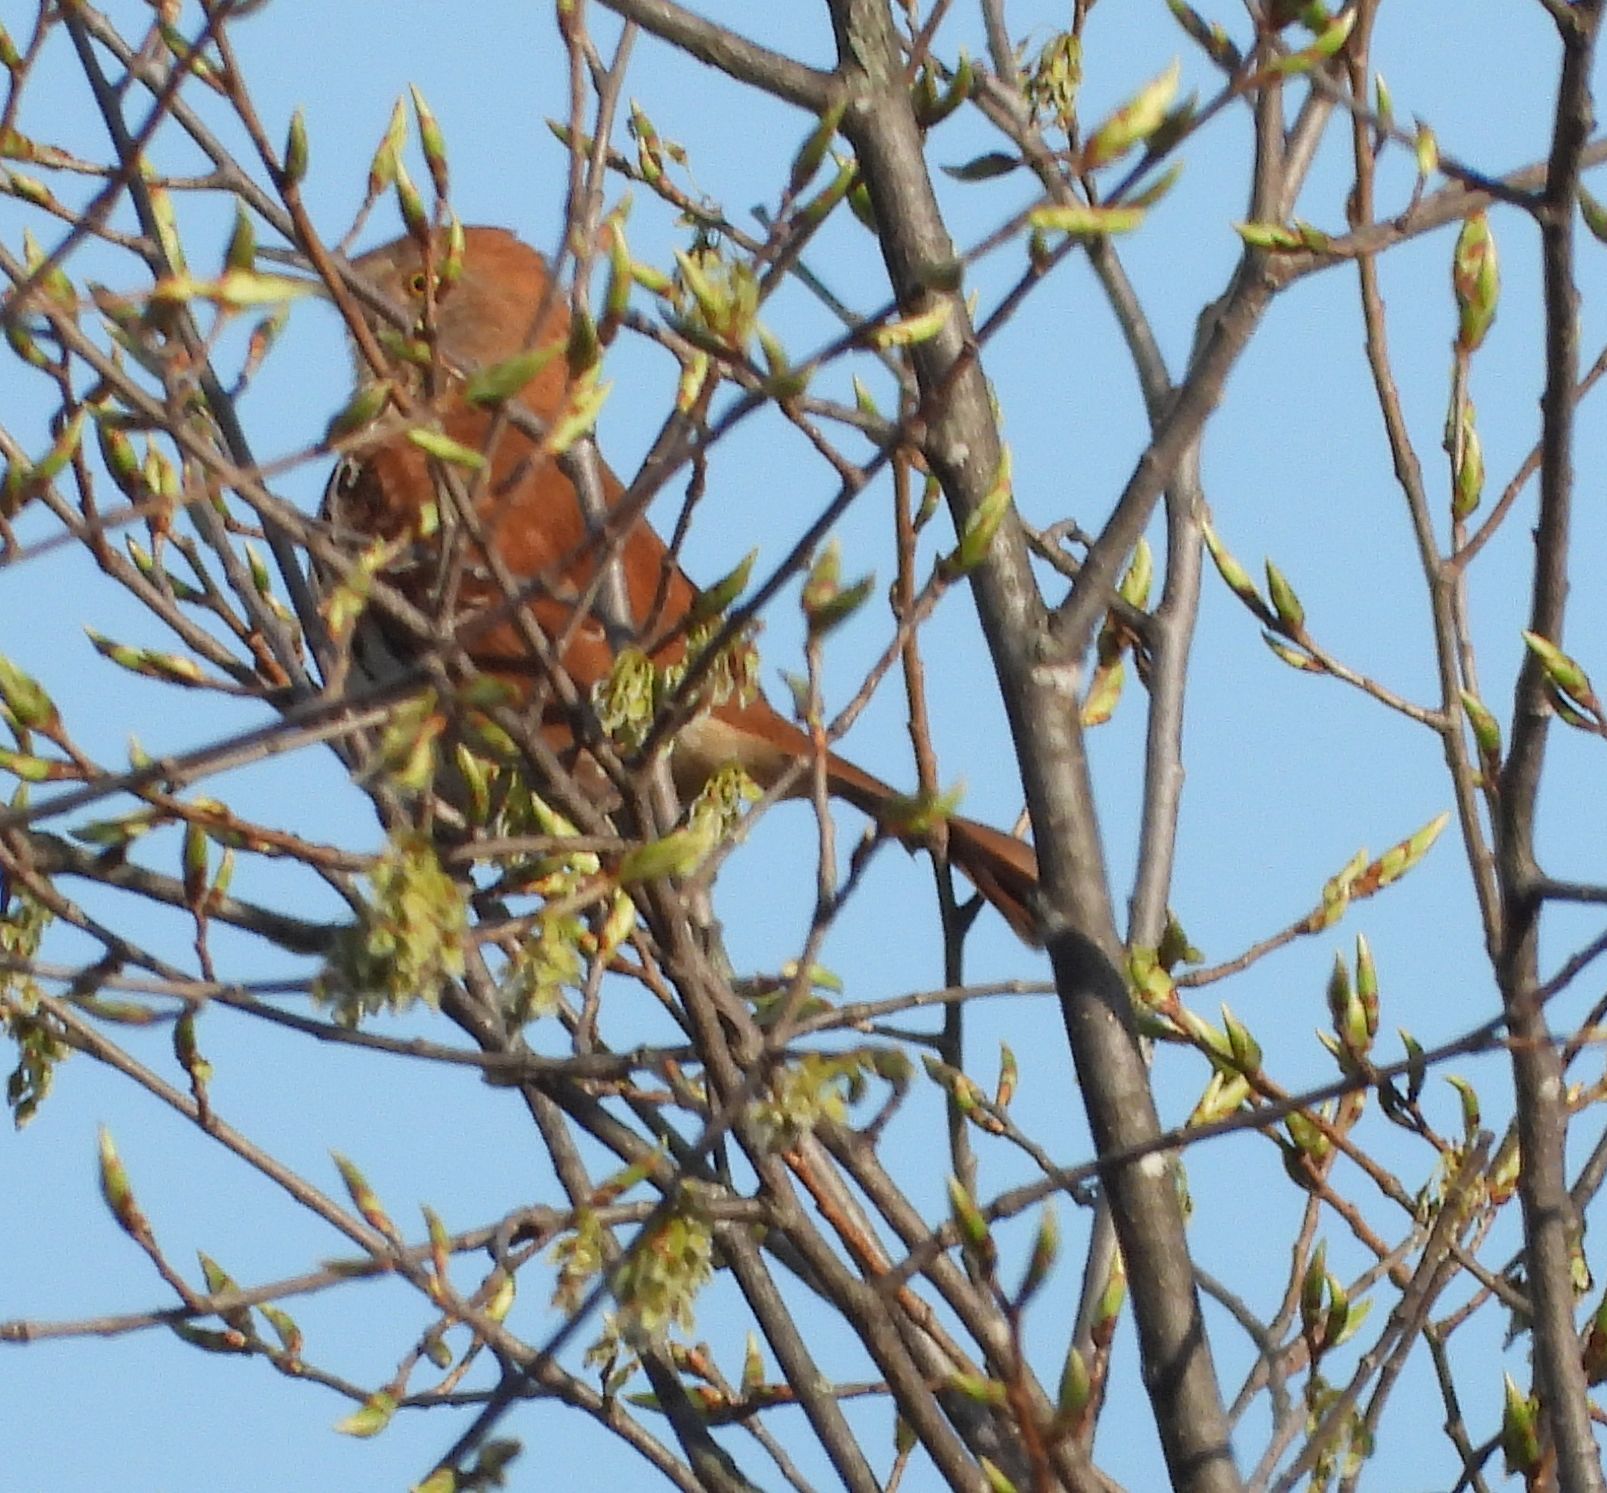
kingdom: Animalia
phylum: Chordata
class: Aves
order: Passeriformes
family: Mimidae
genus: Toxostoma
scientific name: Toxostoma rufum
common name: Brown thrasher
